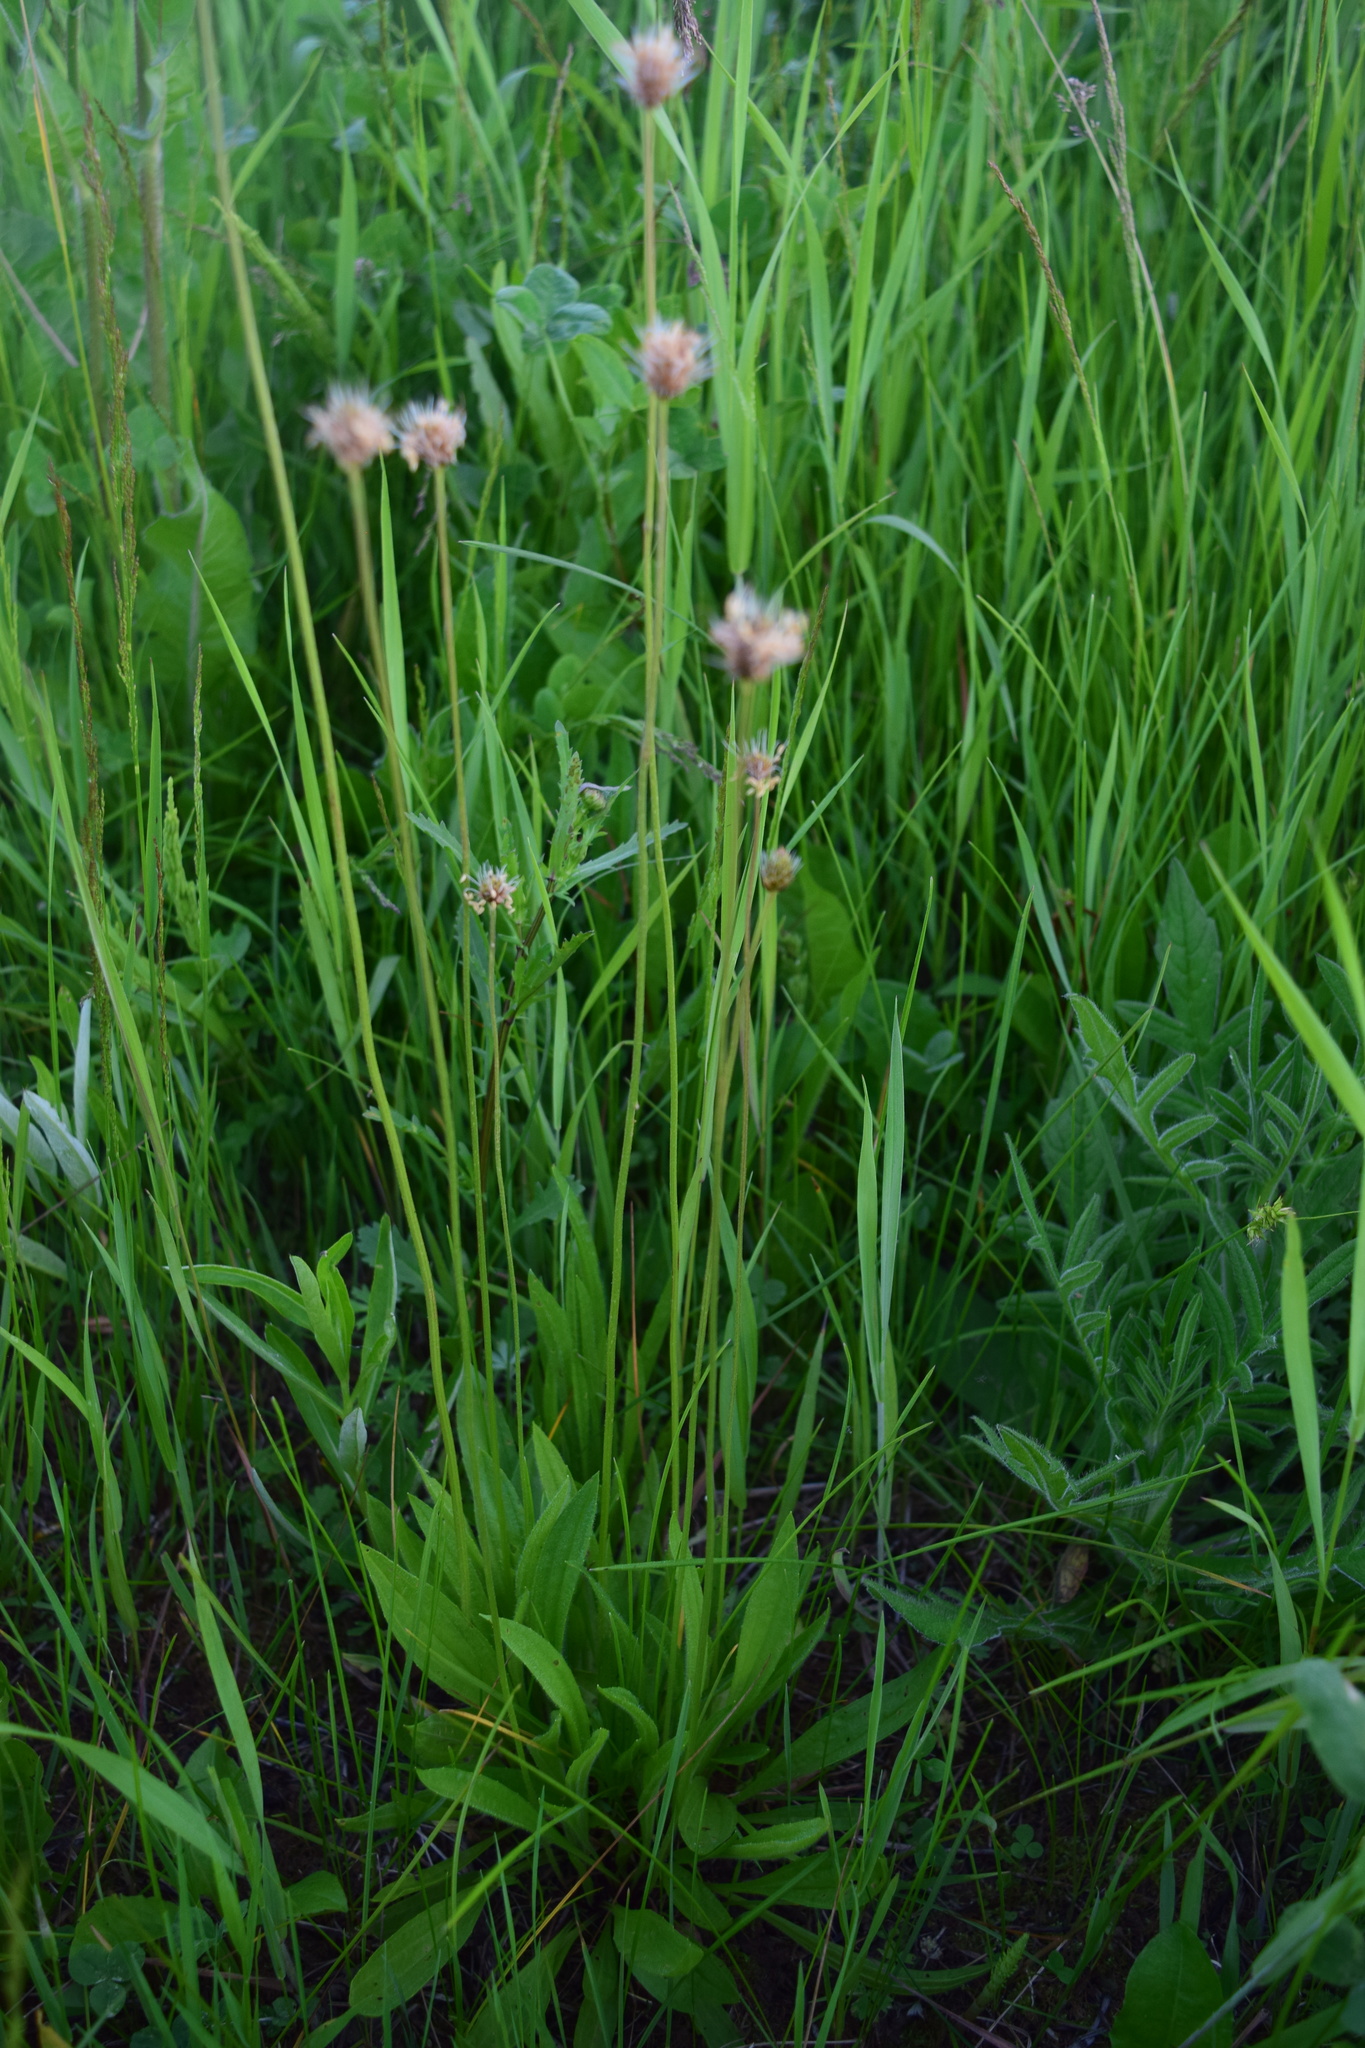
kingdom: Plantae
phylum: Tracheophyta
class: Magnoliopsida
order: Lamiales
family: Plantaginaceae
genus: Plantago
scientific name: Plantago lanceolata
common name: Ribwort plantain
